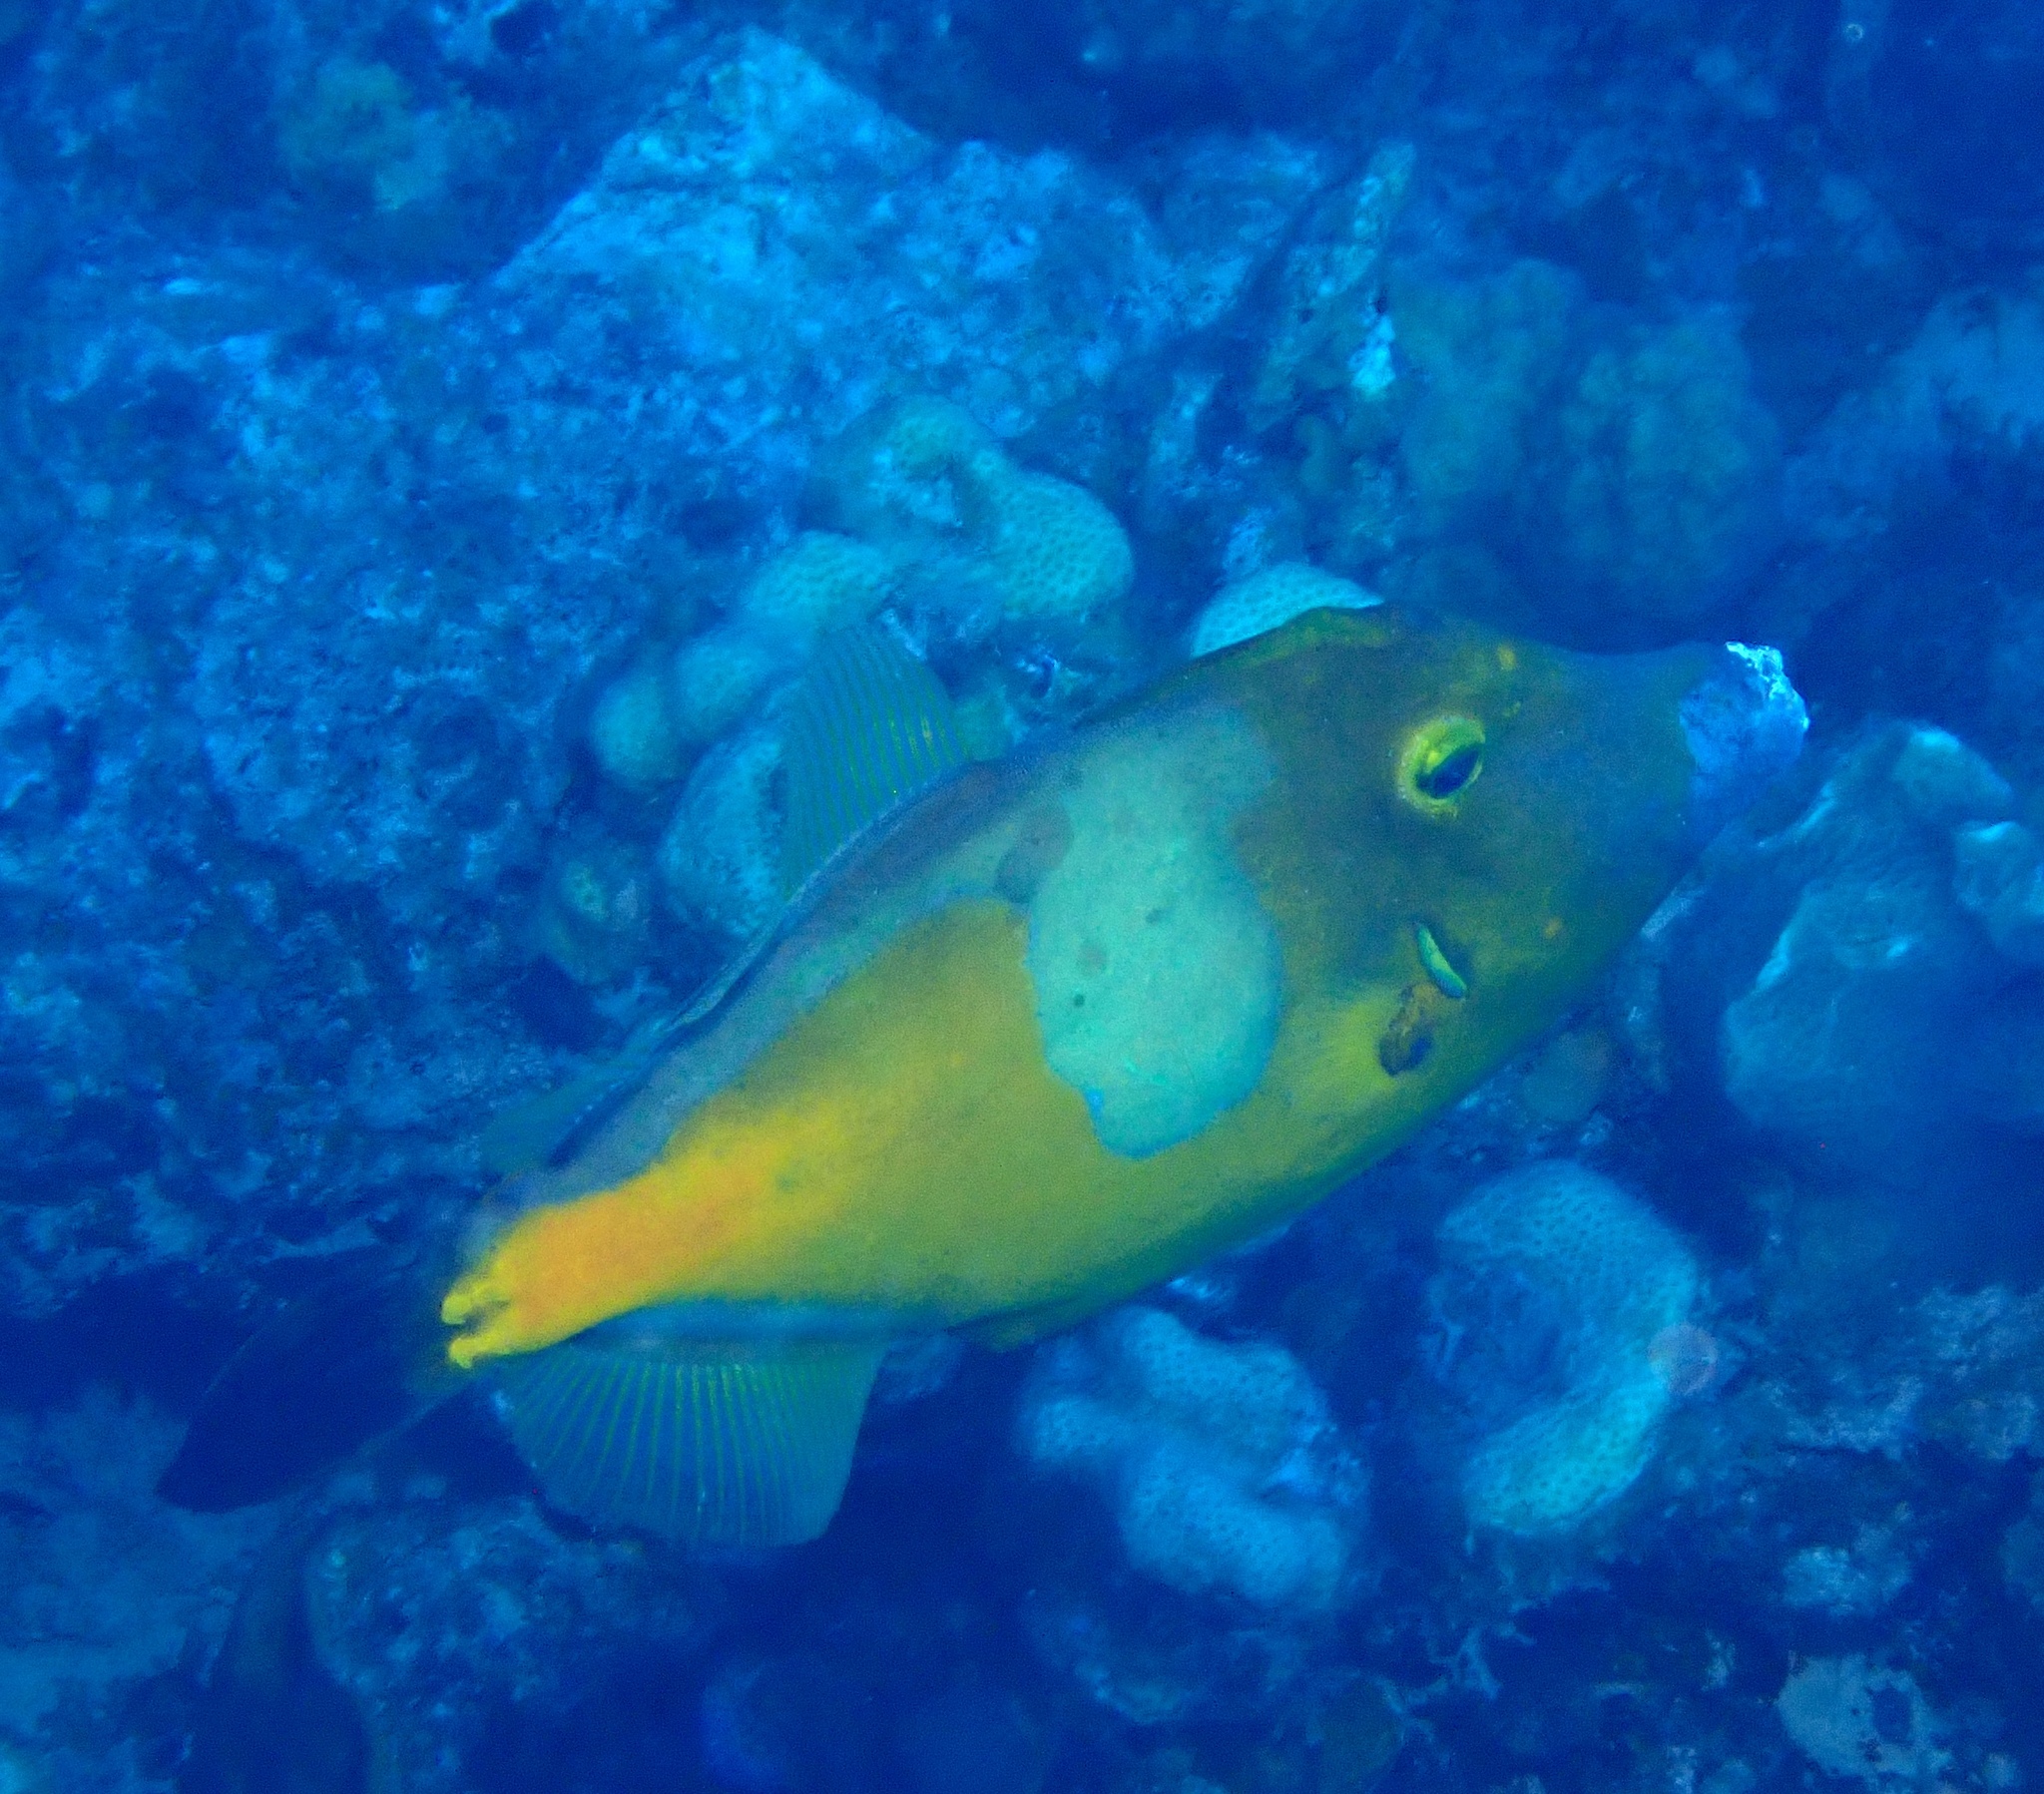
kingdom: Animalia
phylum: Chordata
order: Tetraodontiformes
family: Monacanthidae
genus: Cantherhines
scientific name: Cantherhines macrocerus
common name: Whitespotted filefish
